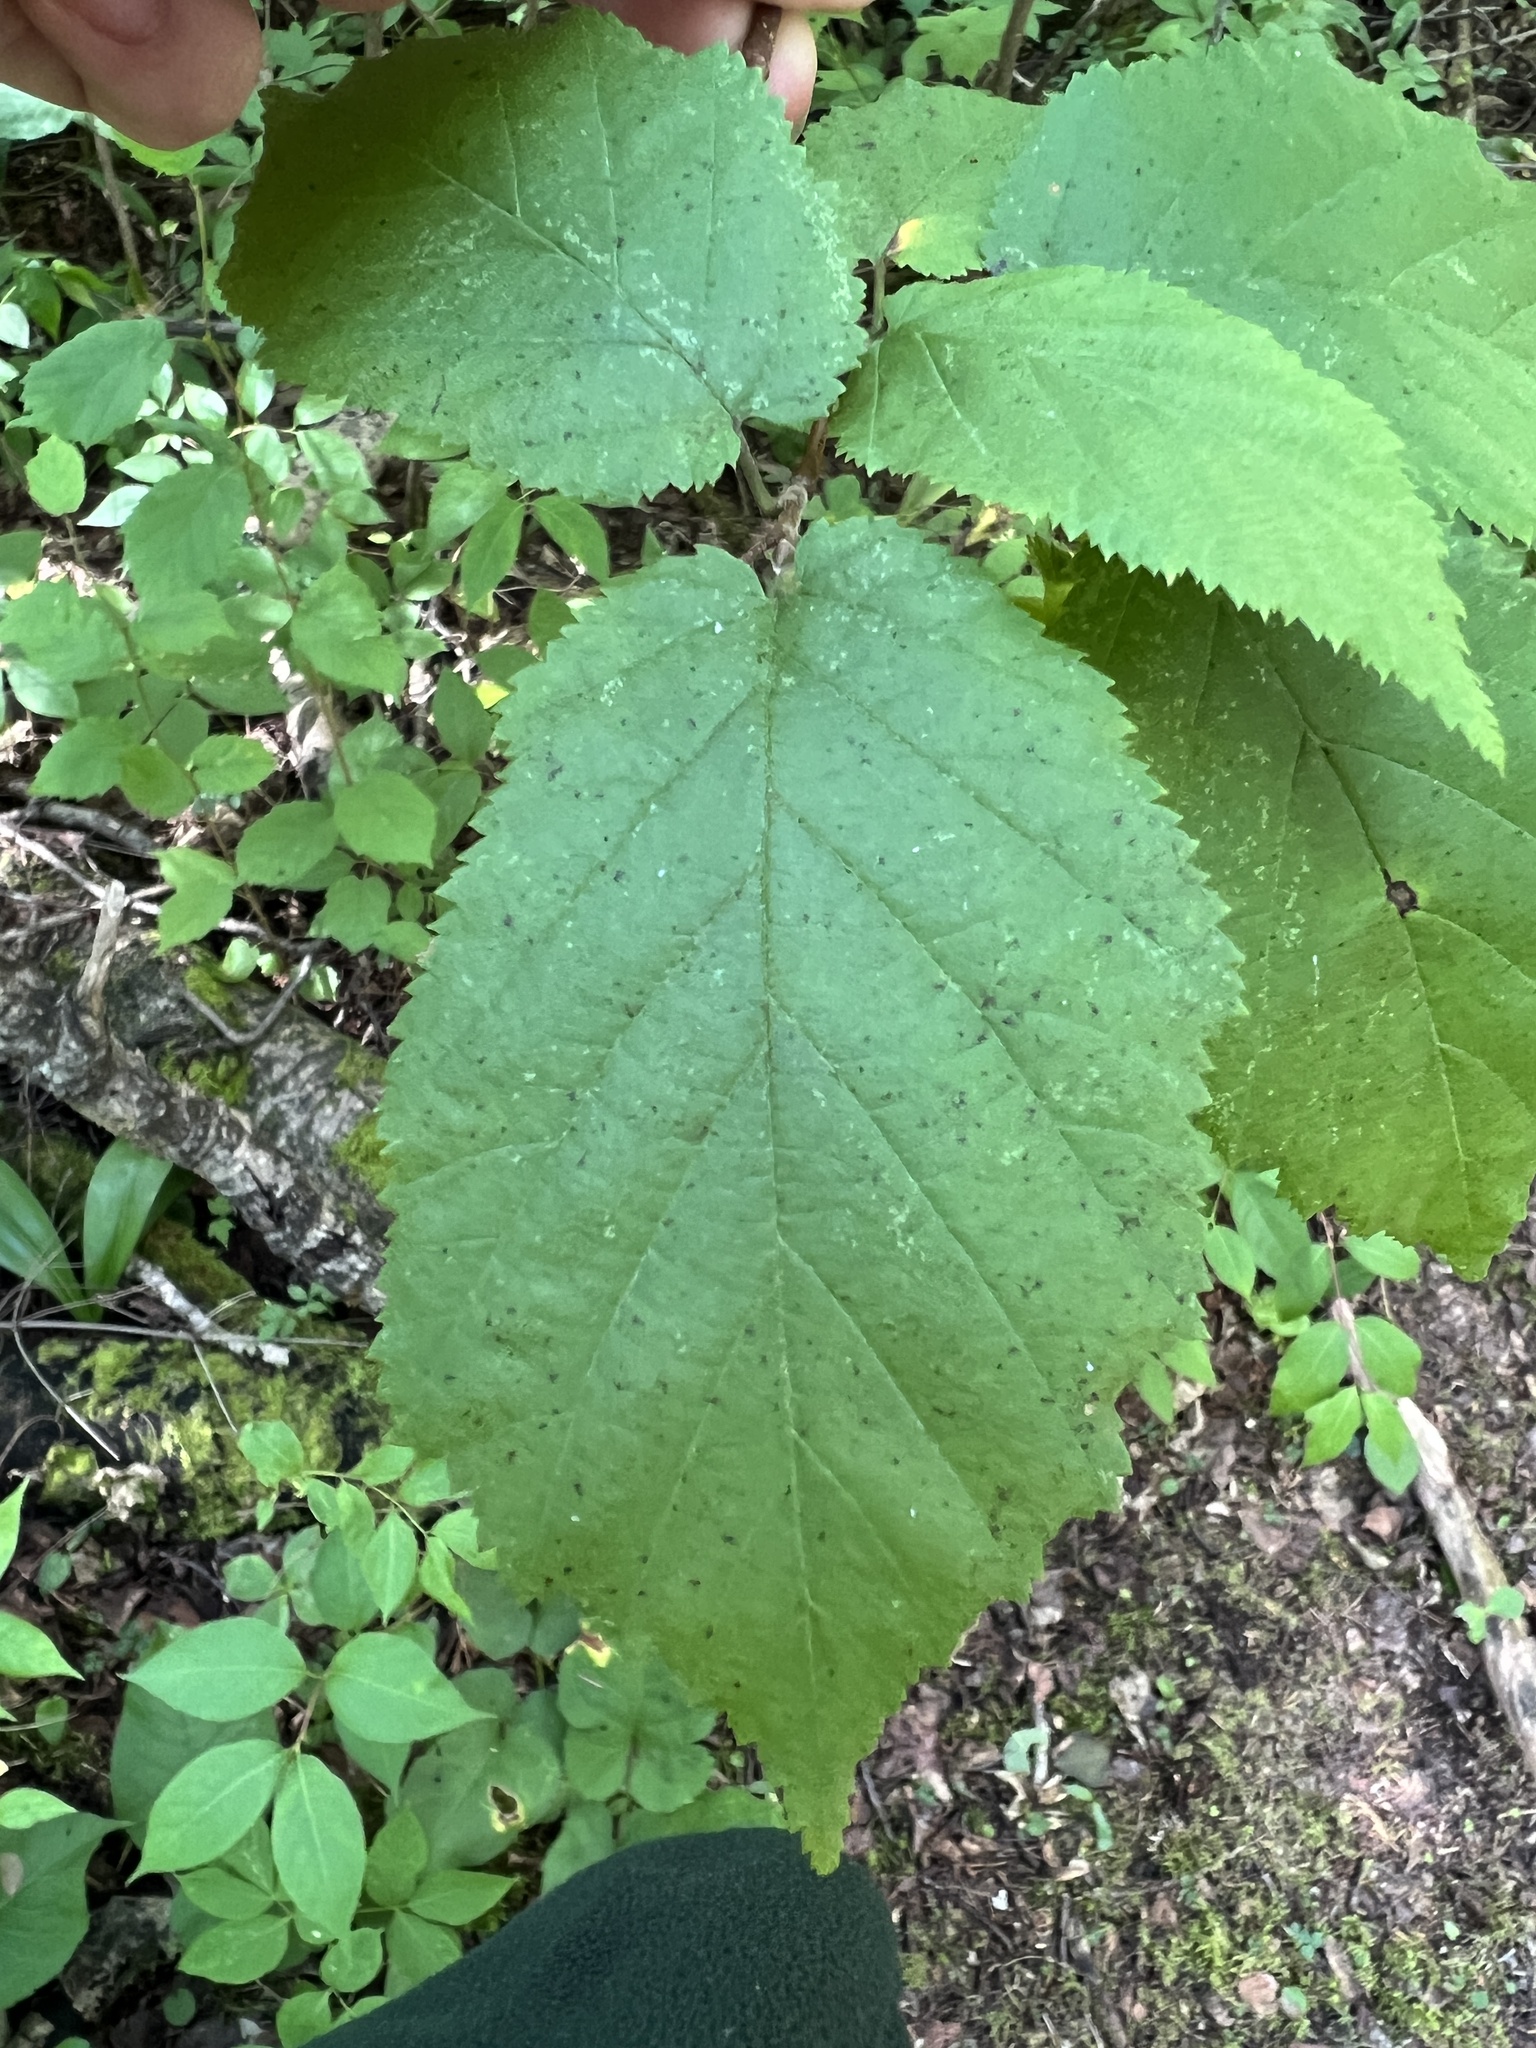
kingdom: Plantae
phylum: Tracheophyta
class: Magnoliopsida
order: Fagales
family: Betulaceae
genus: Corylus
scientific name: Corylus cornuta
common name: Beaked hazel
